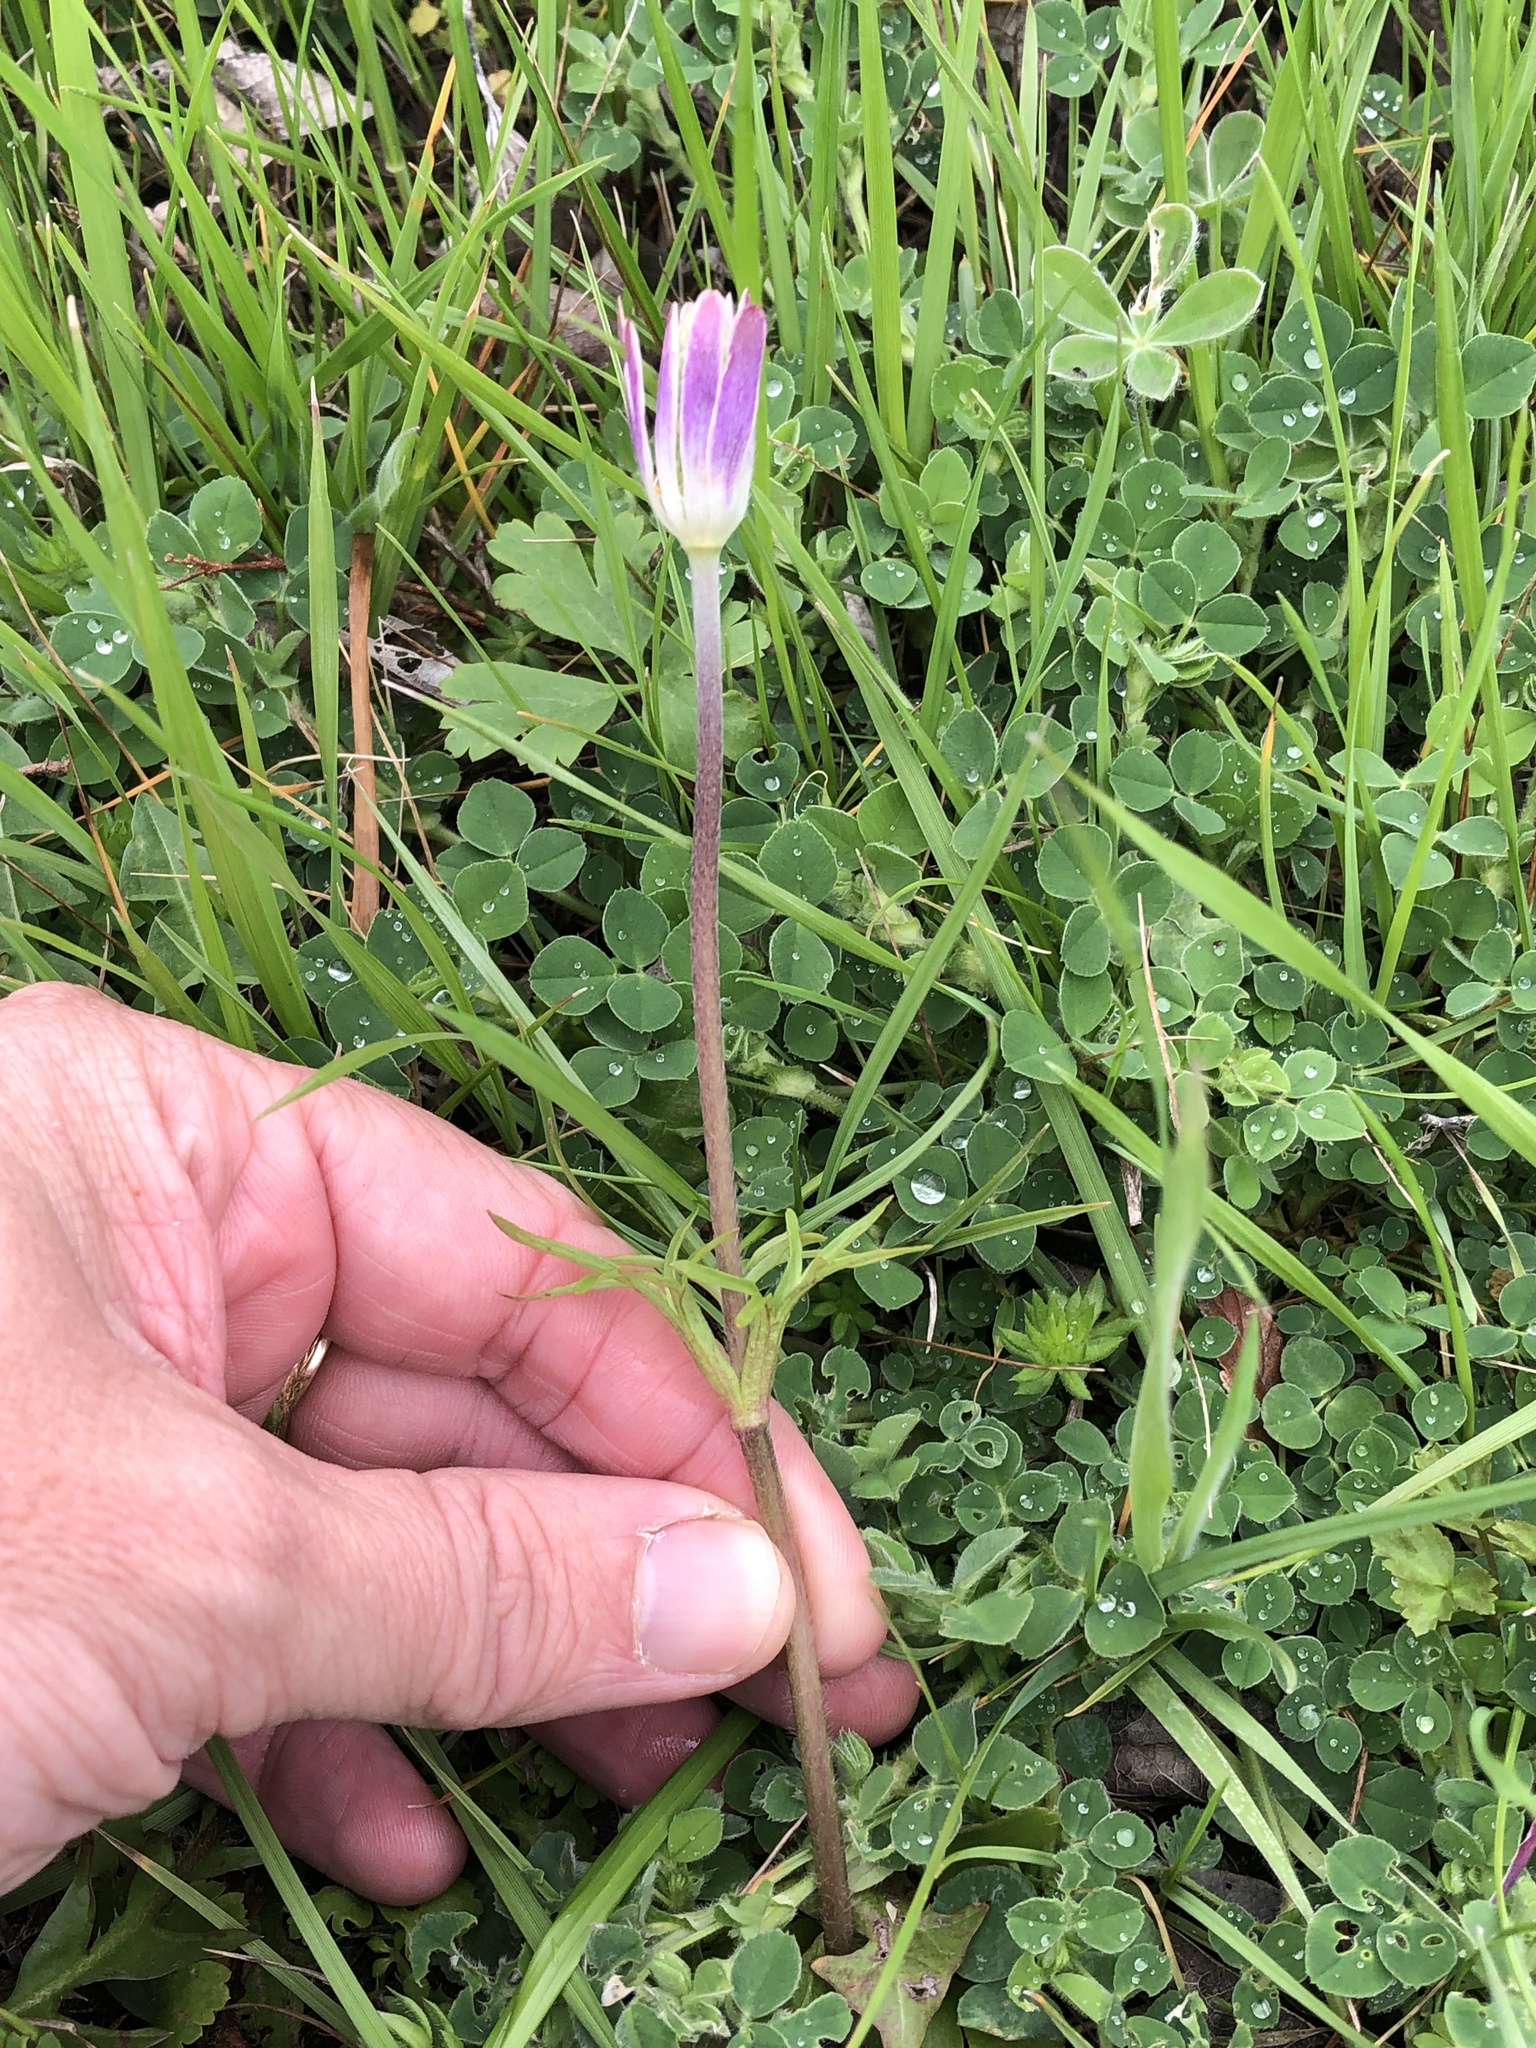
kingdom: Plantae
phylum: Tracheophyta
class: Magnoliopsida
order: Ranunculales
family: Ranunculaceae
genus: Anemone
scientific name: Anemone berlandieri
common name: Ten-petal anemone
